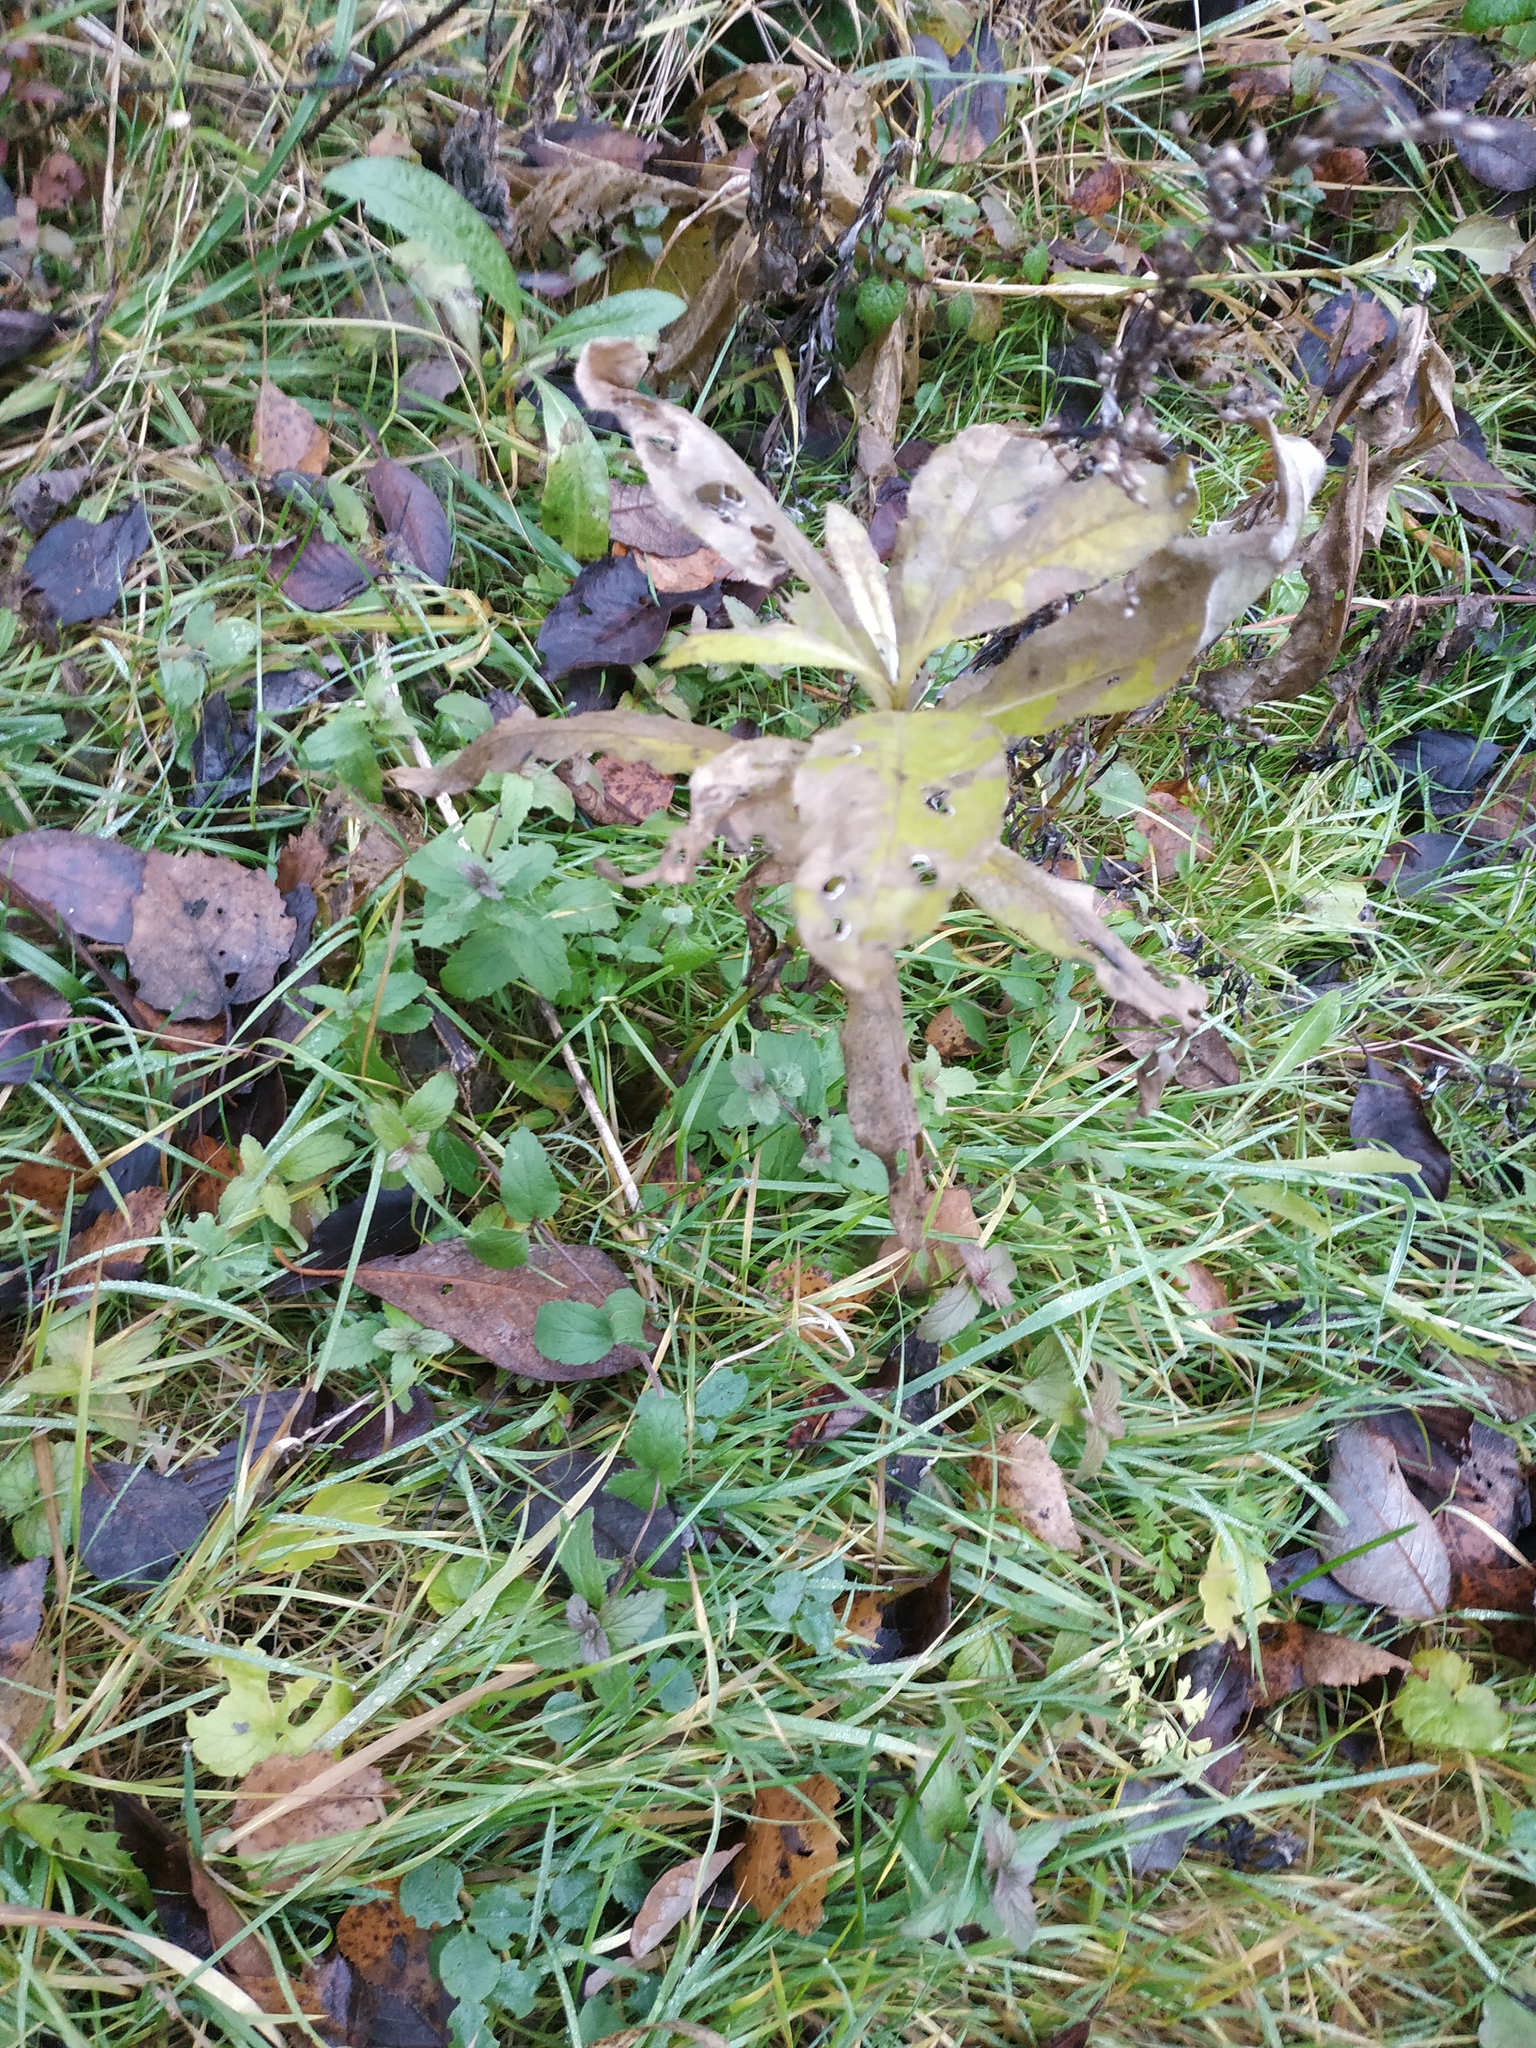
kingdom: Plantae
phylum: Tracheophyta
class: Magnoliopsida
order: Lamiales
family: Plantaginaceae
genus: Veronica
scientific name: Veronica chamaedrys
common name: Germander speedwell
